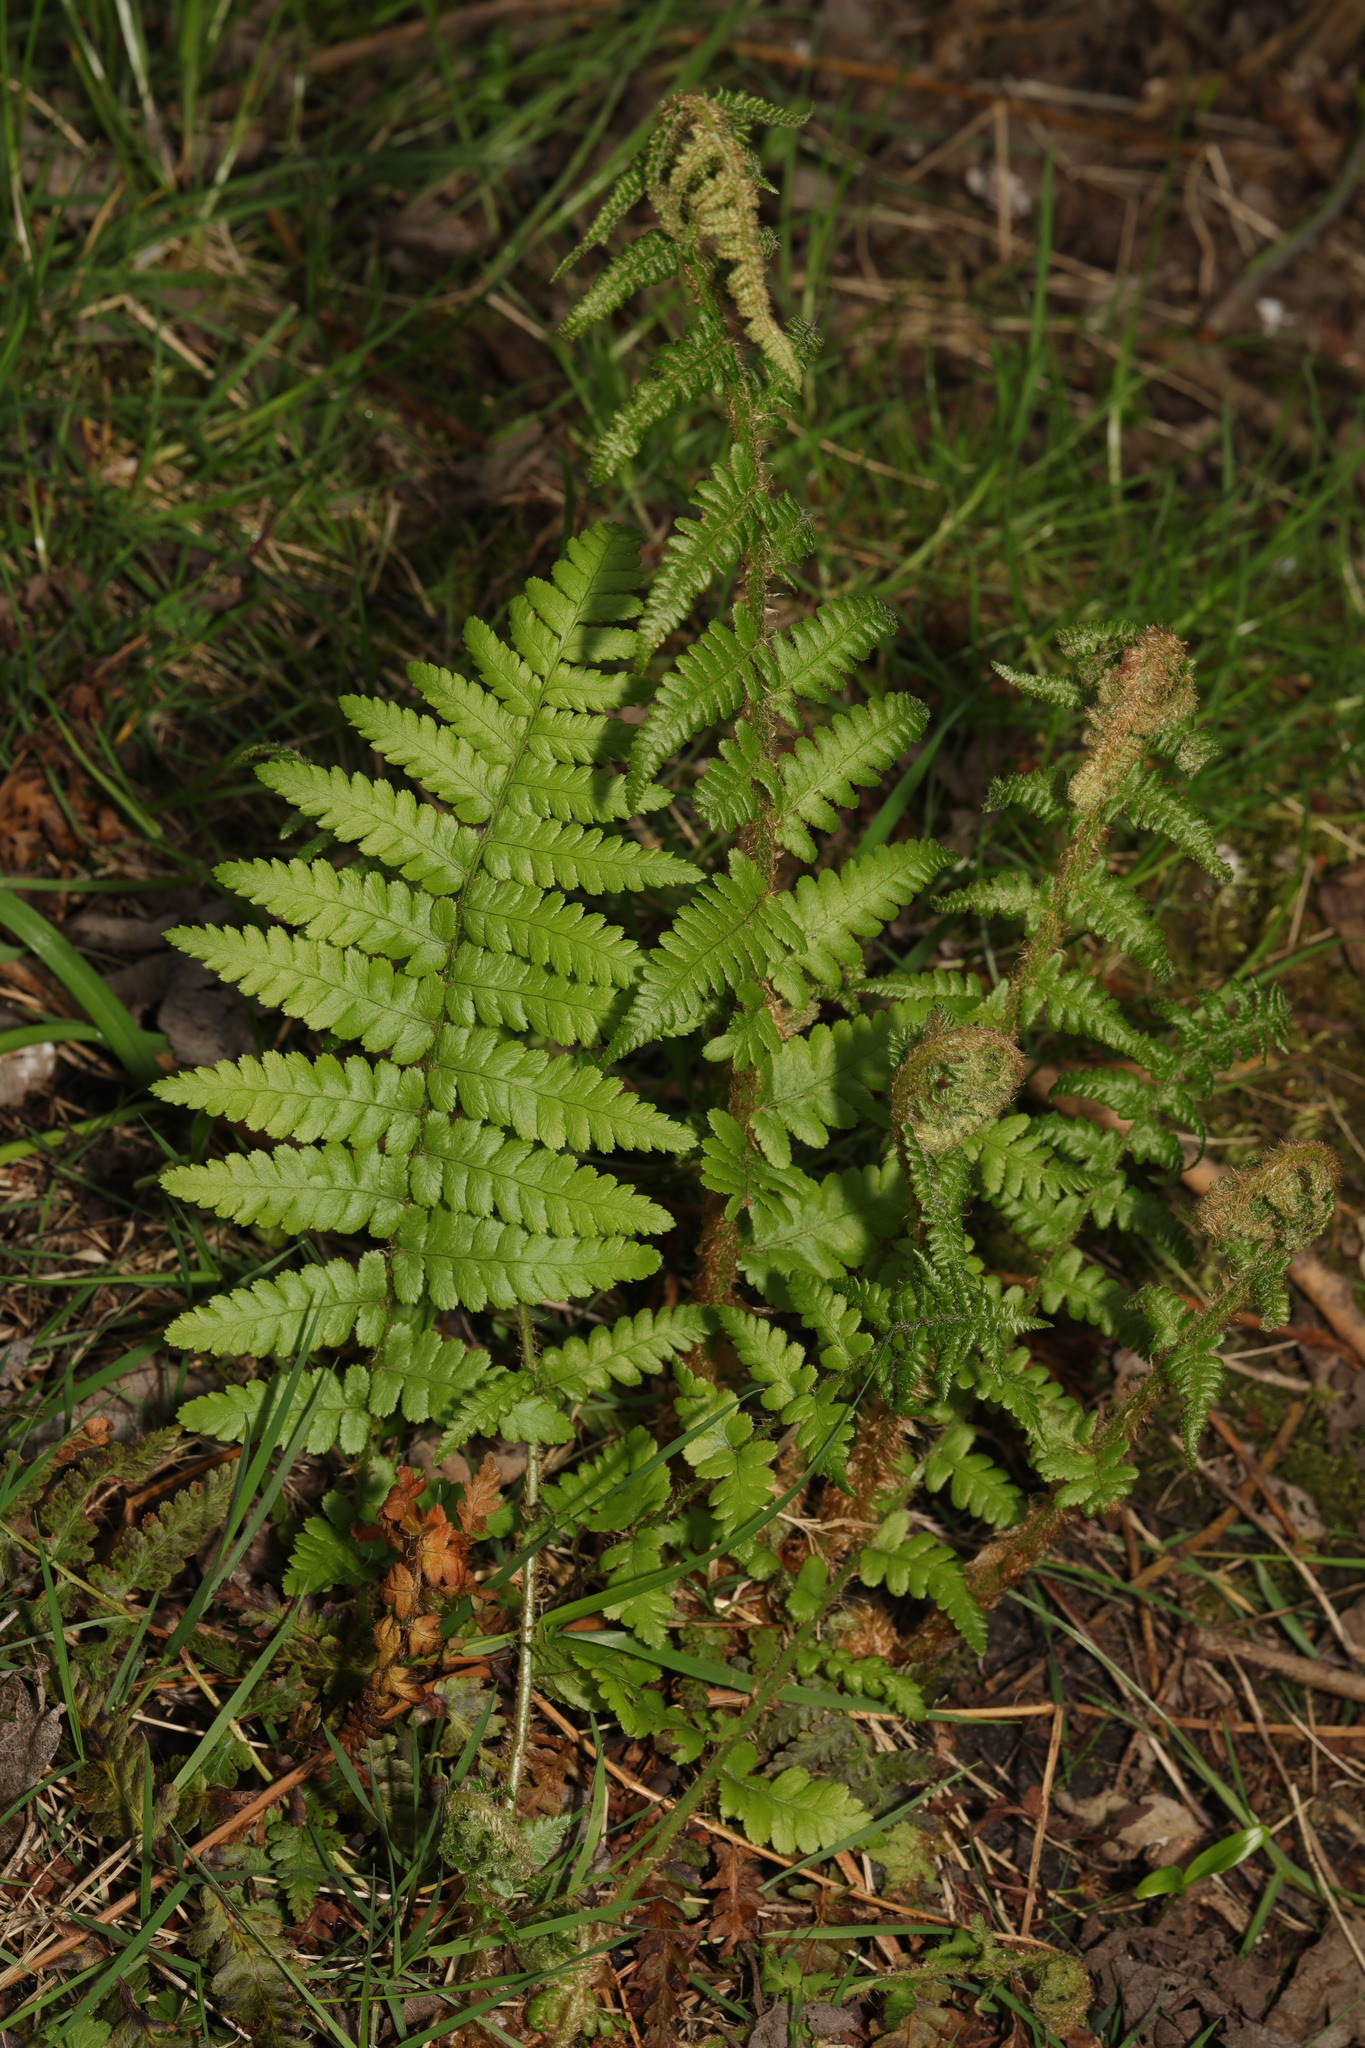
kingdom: Plantae
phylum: Tracheophyta
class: Polypodiopsida
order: Polypodiales
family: Dryopteridaceae
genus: Dryopteris
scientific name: Dryopteris filix-mas
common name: Male fern
